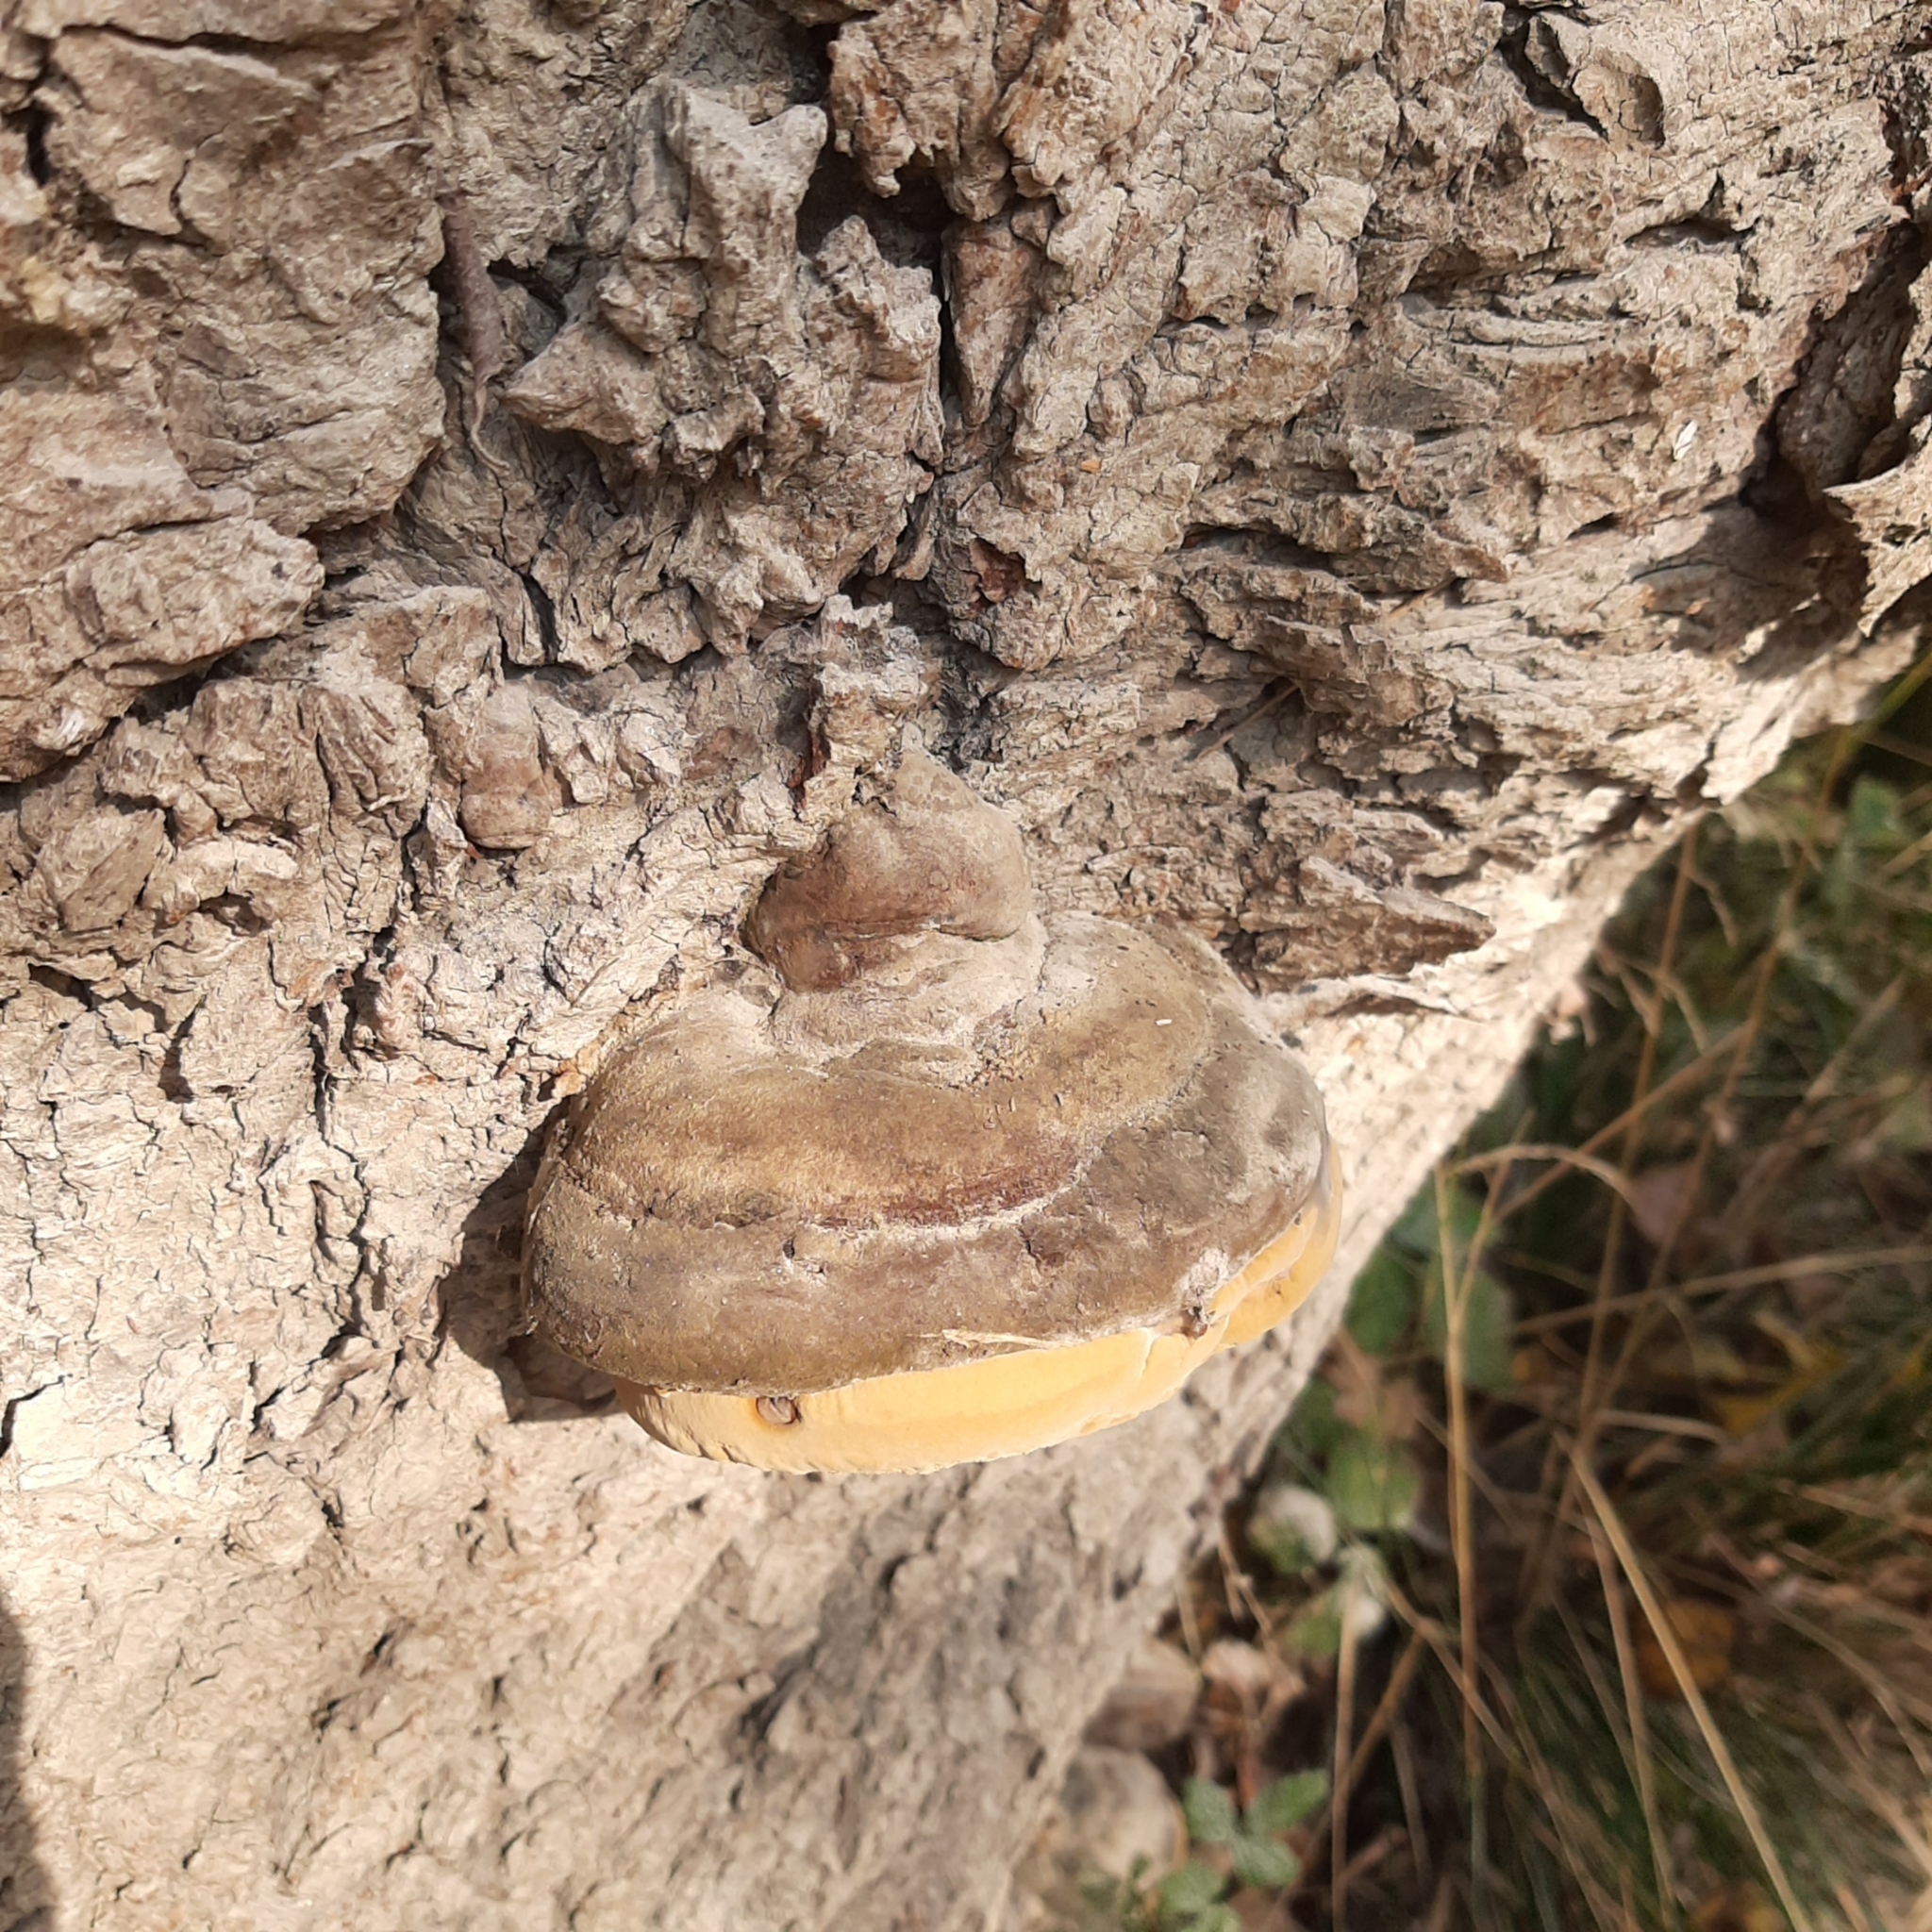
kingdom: Fungi
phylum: Basidiomycota
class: Agaricomycetes
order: Hymenochaetales
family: Hymenochaetaceae
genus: Phellinus
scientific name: Phellinus igniarius
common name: Willow bracket
